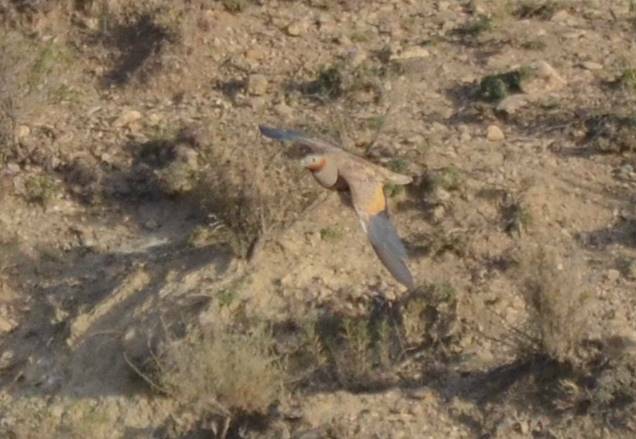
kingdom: Animalia
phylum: Chordata
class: Aves
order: Pteroclidiformes
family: Pteroclididae
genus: Pterocles
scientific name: Pterocles orientalis
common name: Black-bellied sandgrouse
